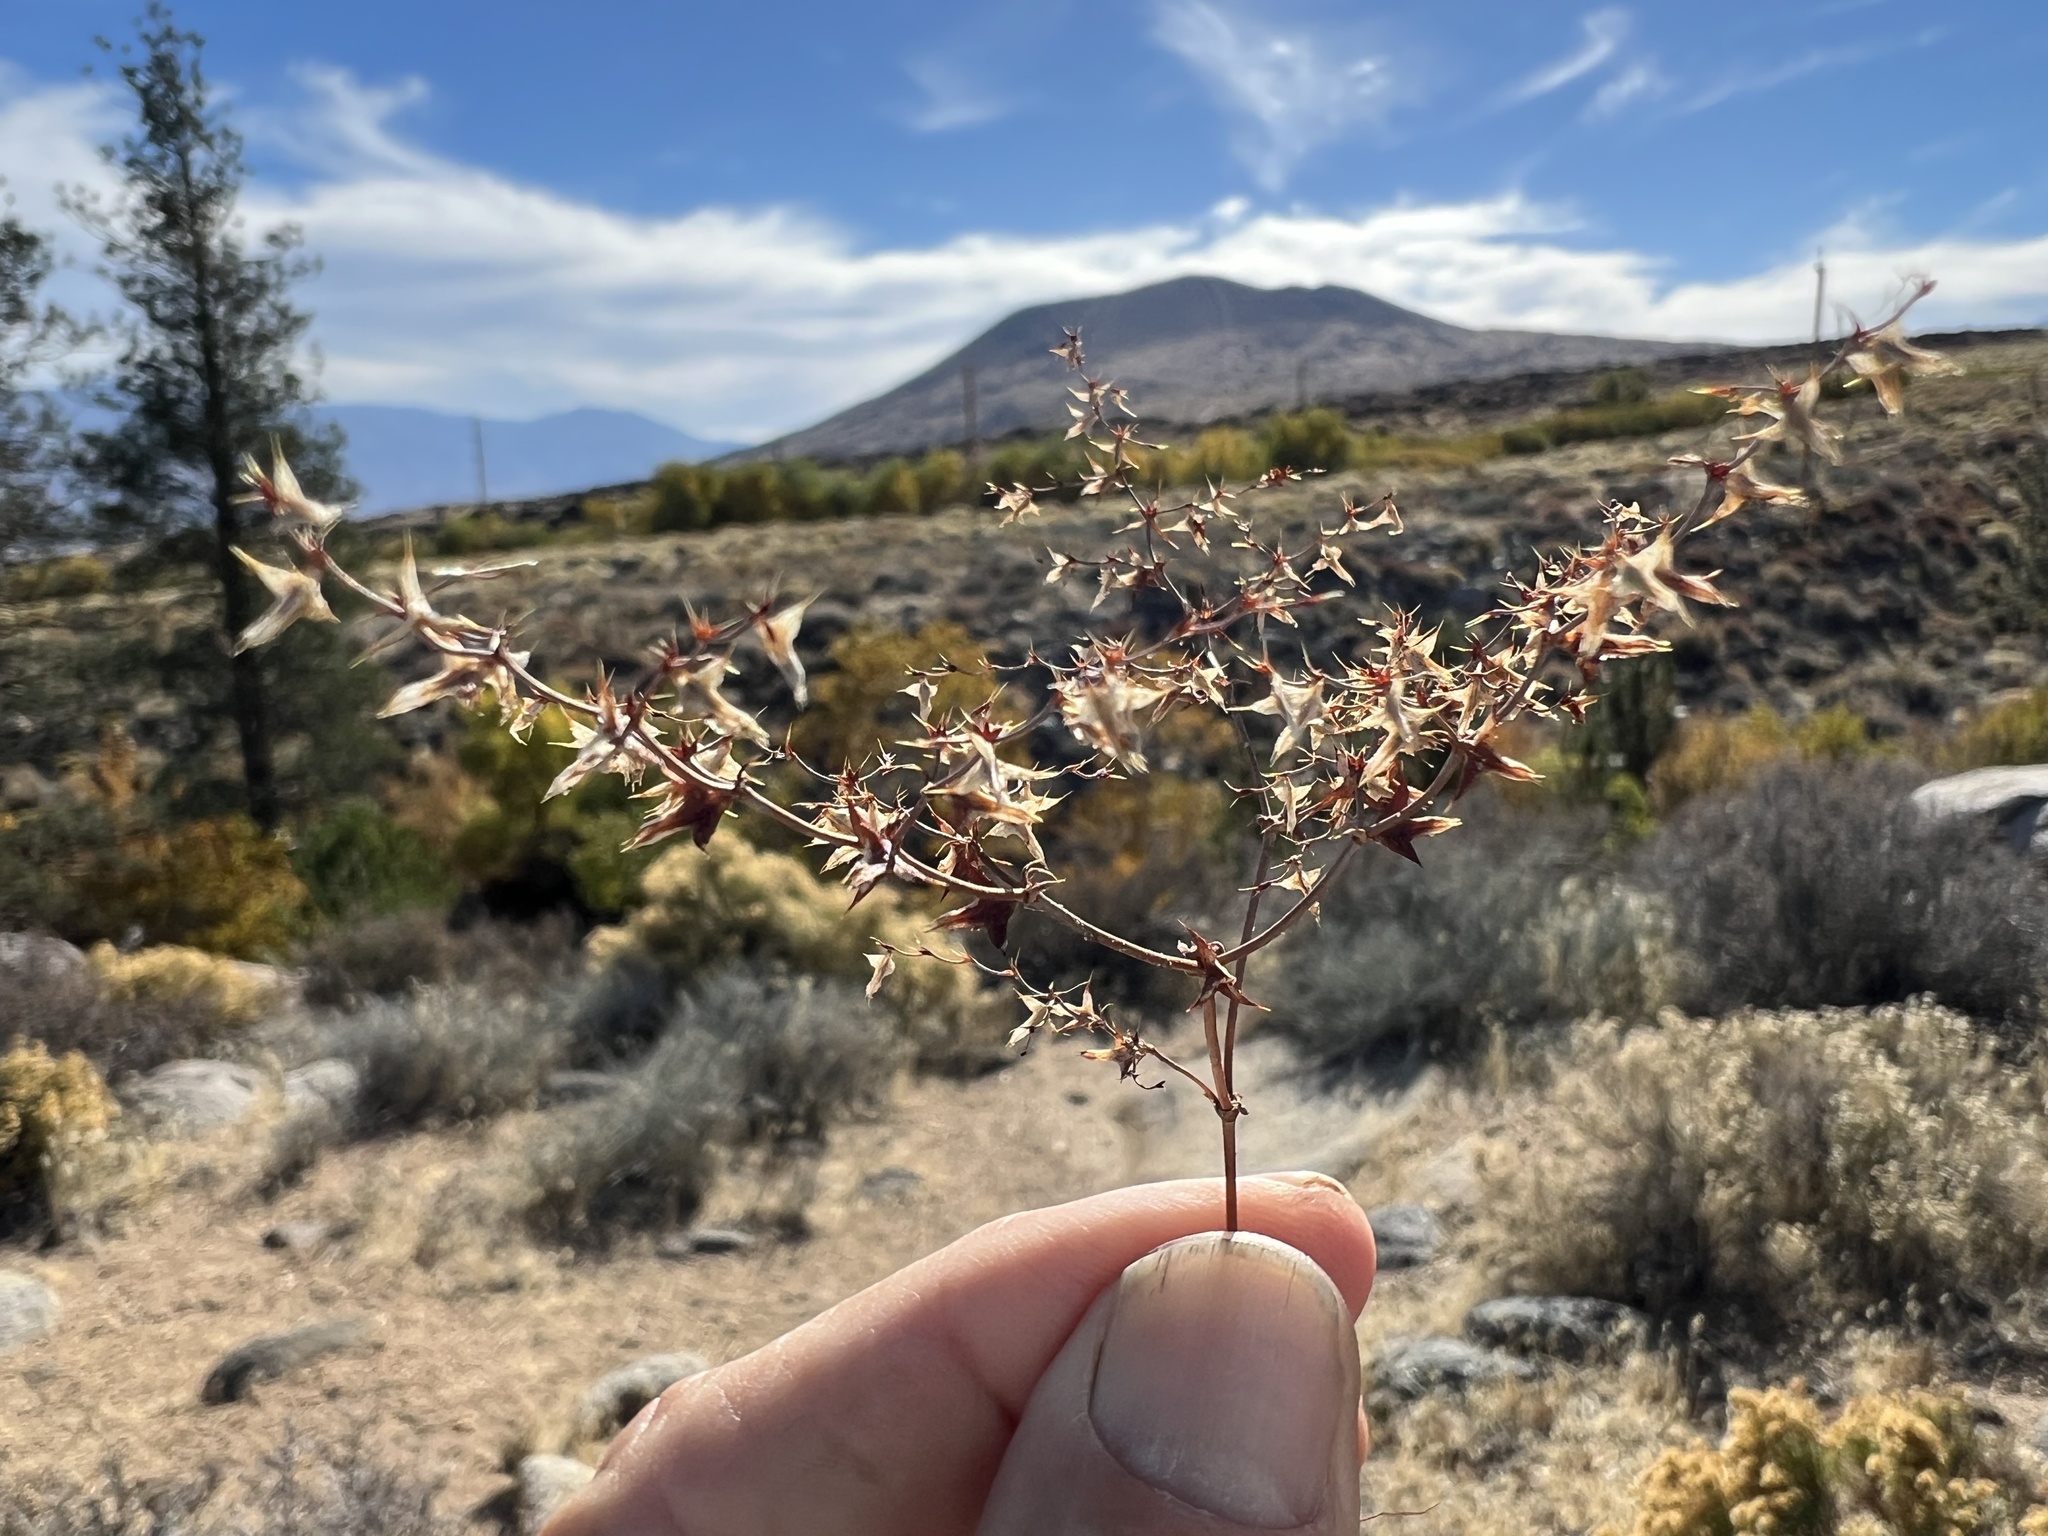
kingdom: Plantae
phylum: Tracheophyta
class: Magnoliopsida
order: Caryophyllales
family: Polygonaceae
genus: Centrostegia
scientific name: Centrostegia thurberi
